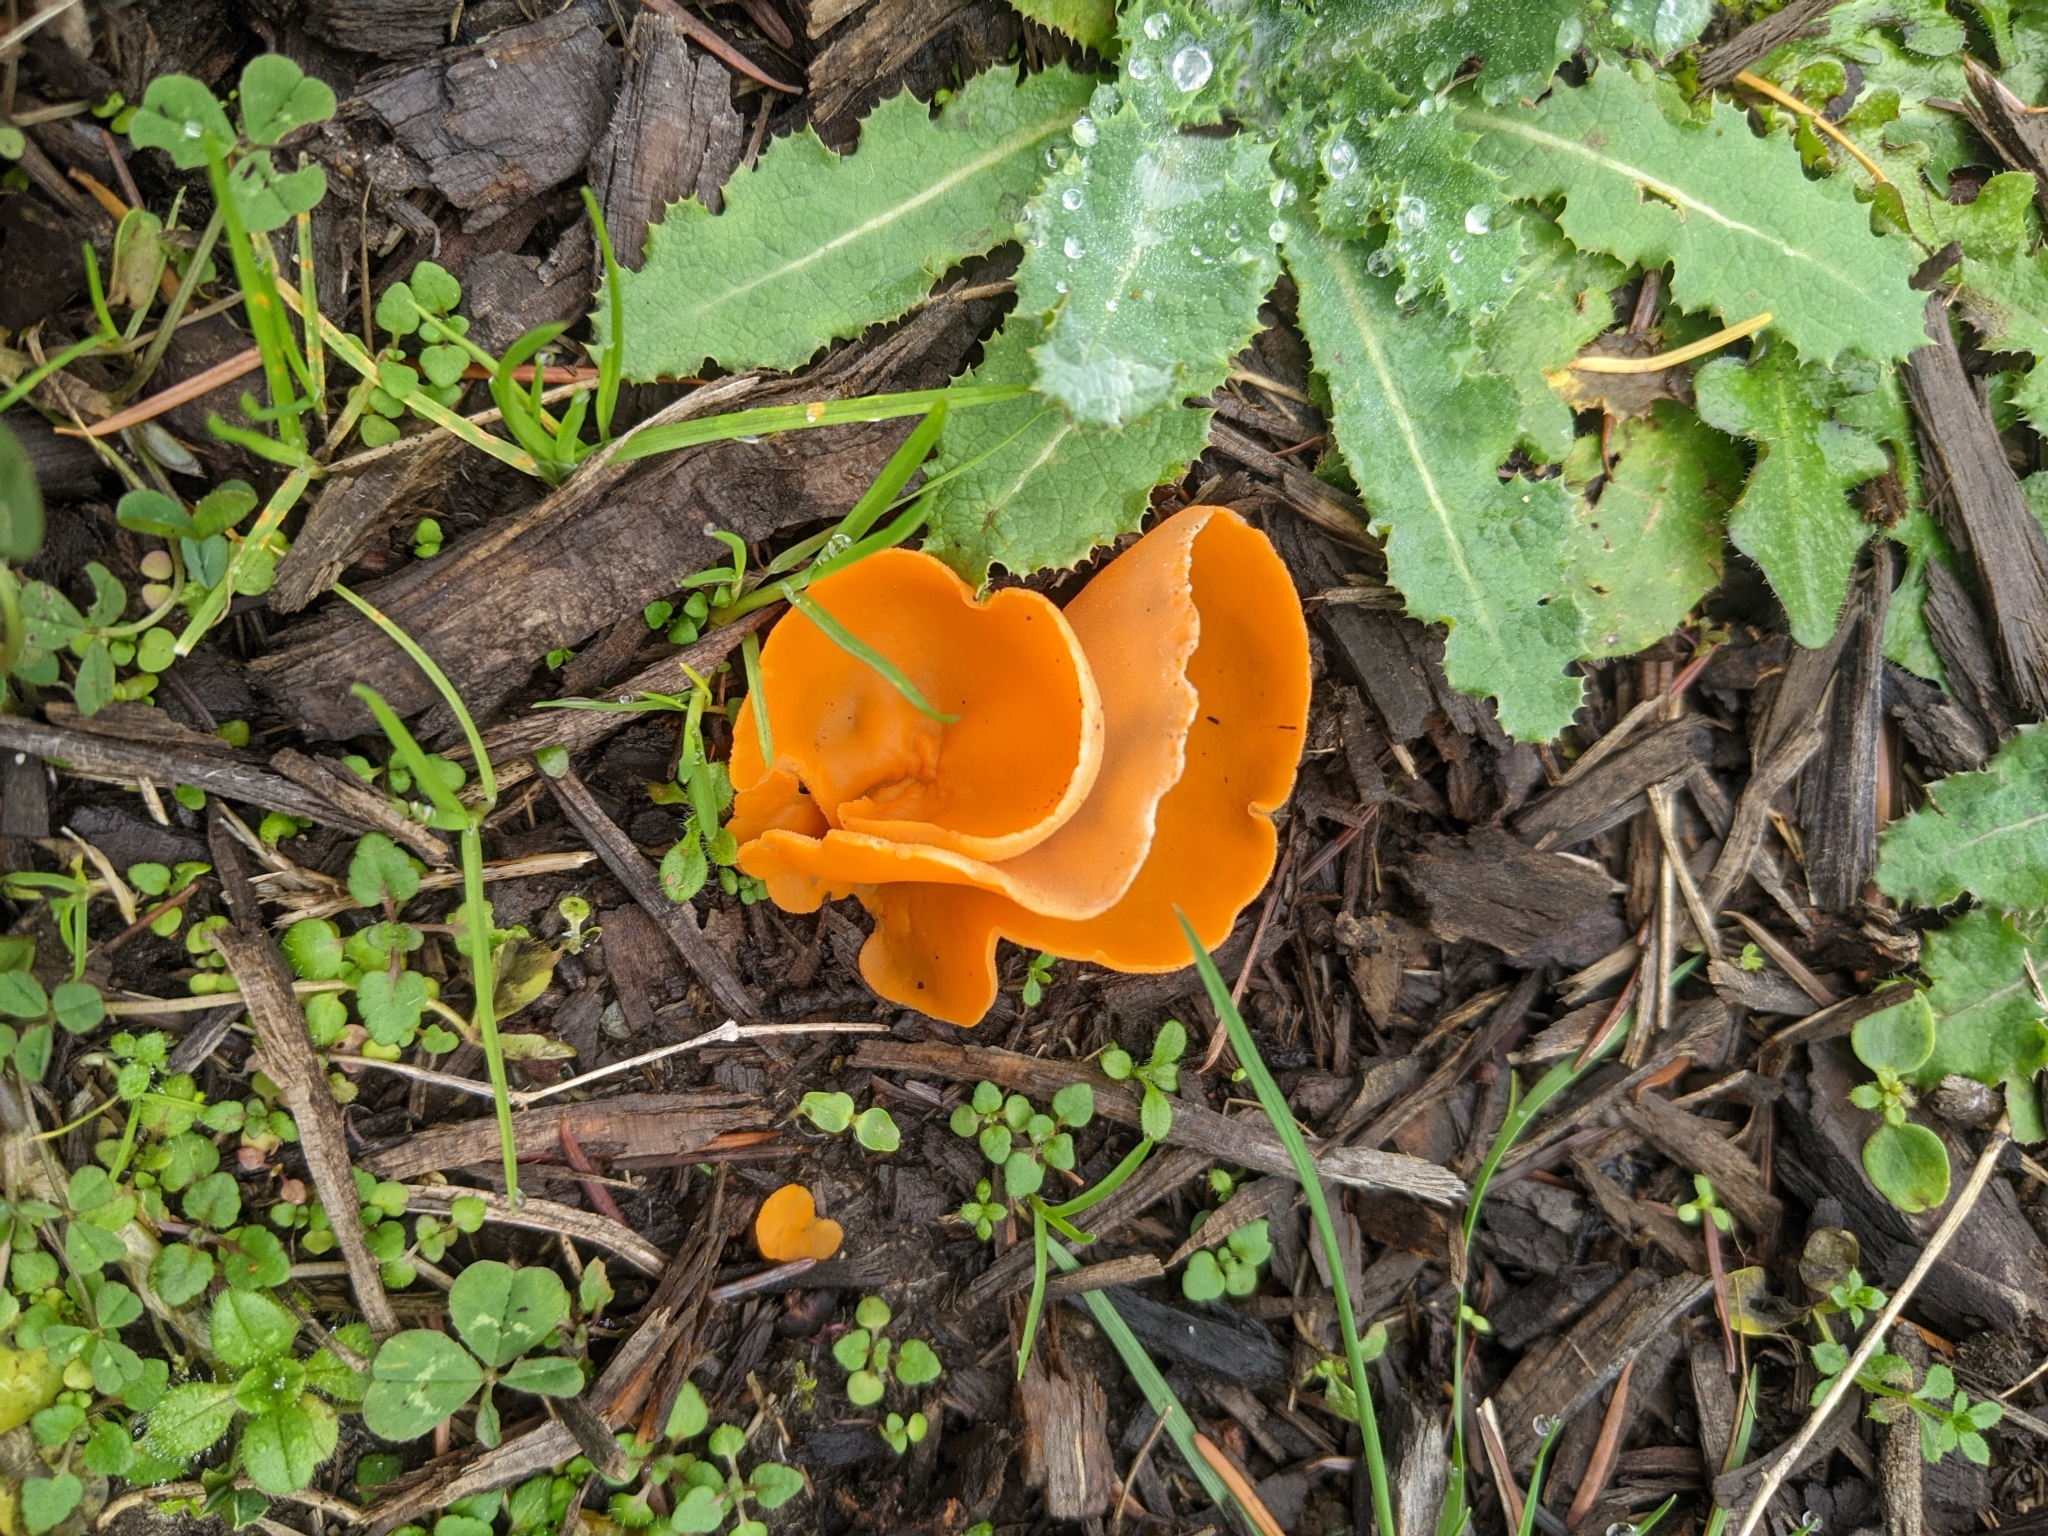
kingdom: Fungi
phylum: Ascomycota
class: Pezizomycetes
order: Pezizales
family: Pyronemataceae
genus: Aleuria
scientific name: Aleuria aurantia
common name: Orange peel fungus
